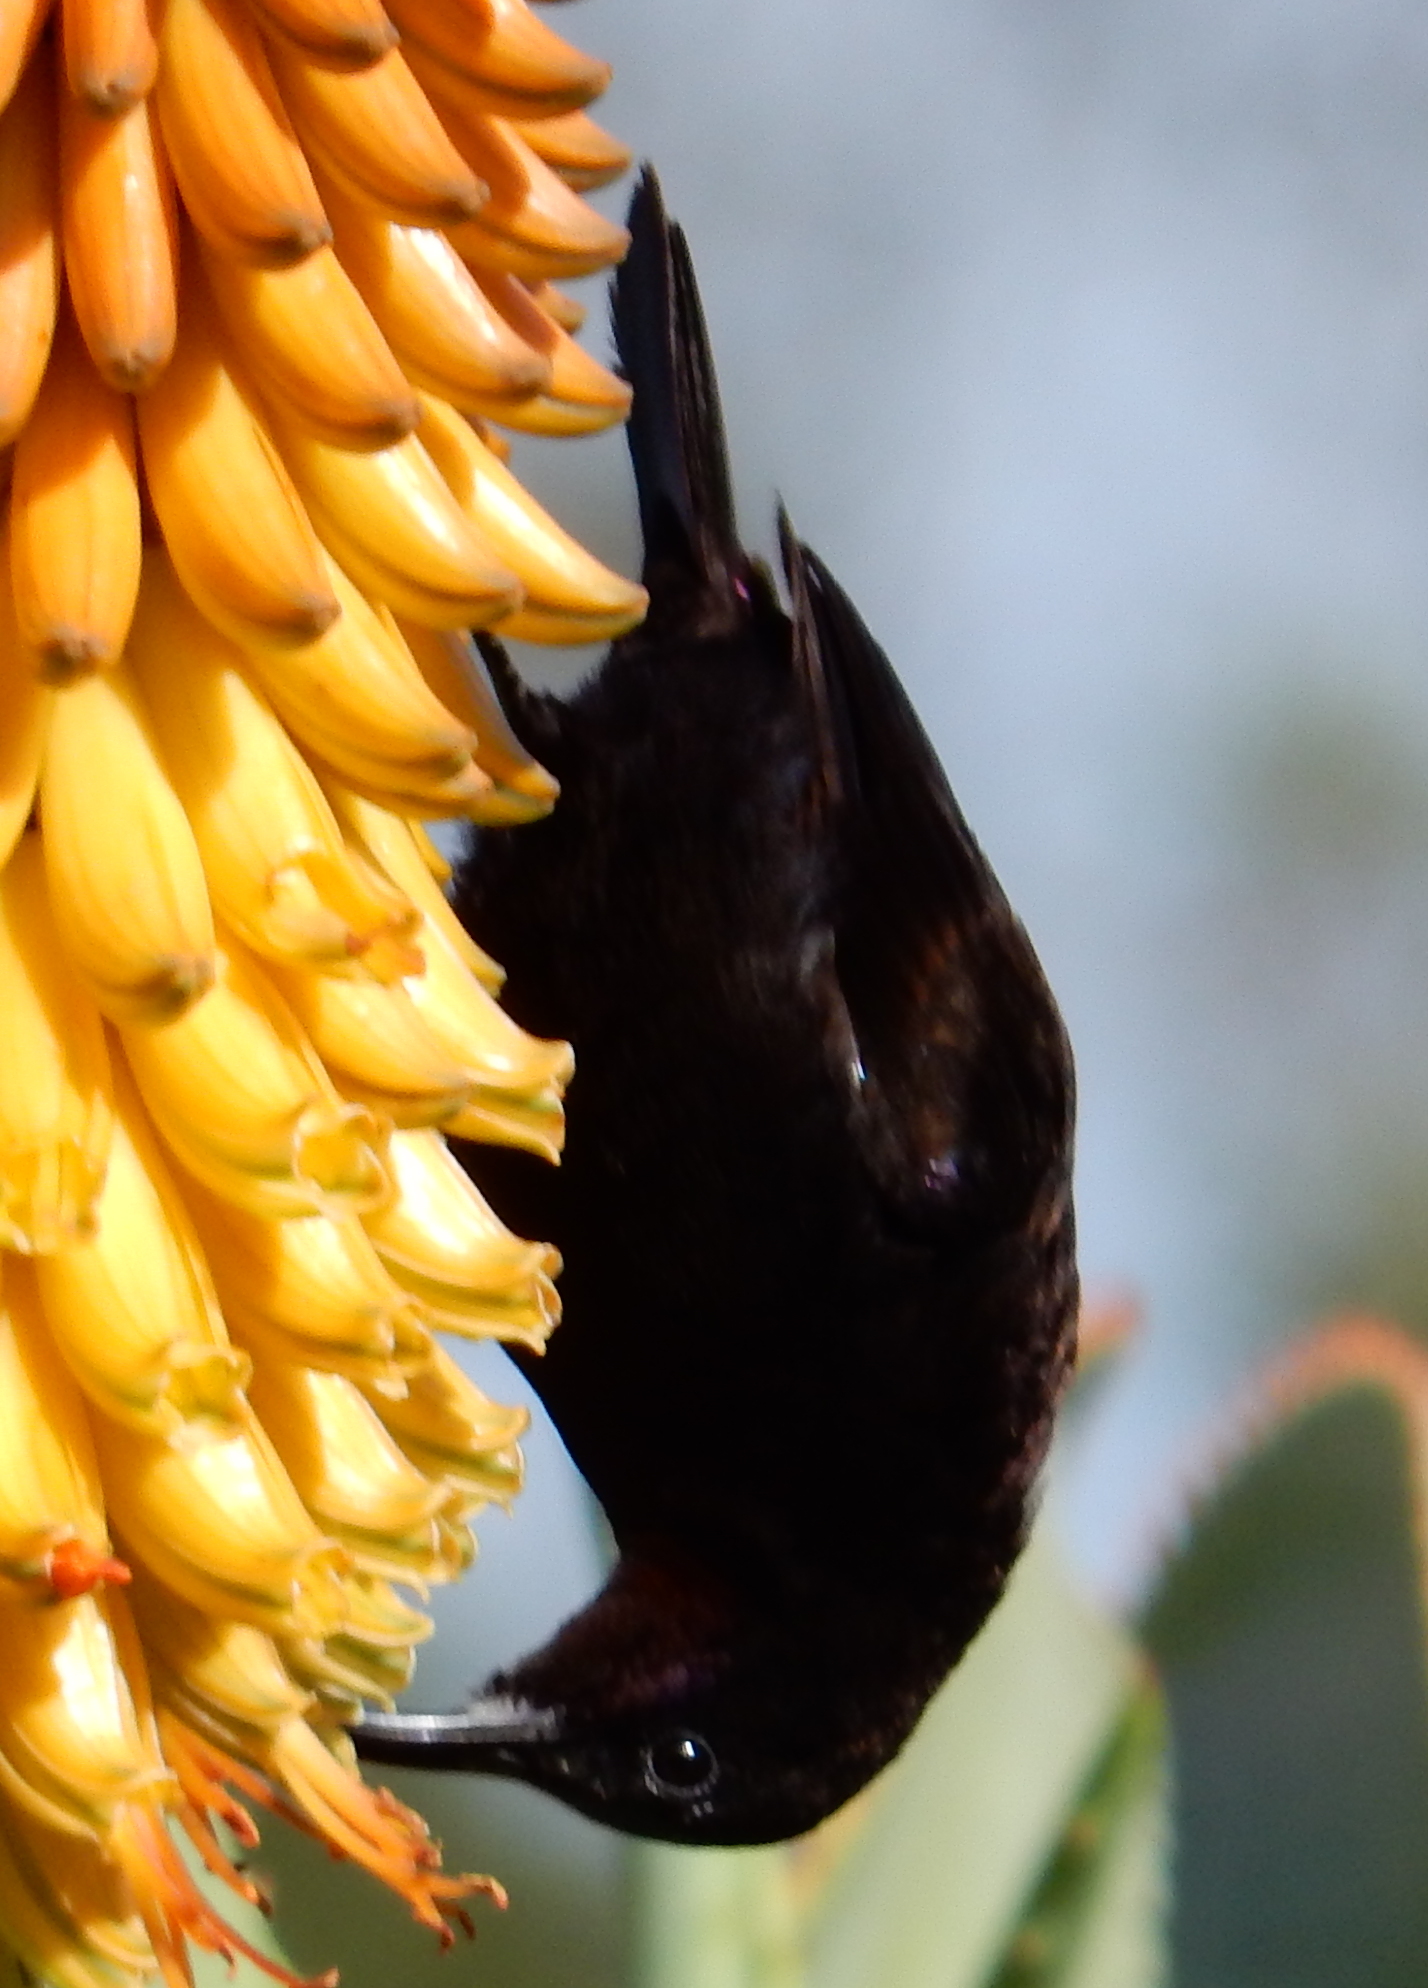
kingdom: Animalia
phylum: Chordata
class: Aves
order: Passeriformes
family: Nectariniidae
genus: Chalcomitra
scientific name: Chalcomitra amethystina
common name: Amethyst sunbird
